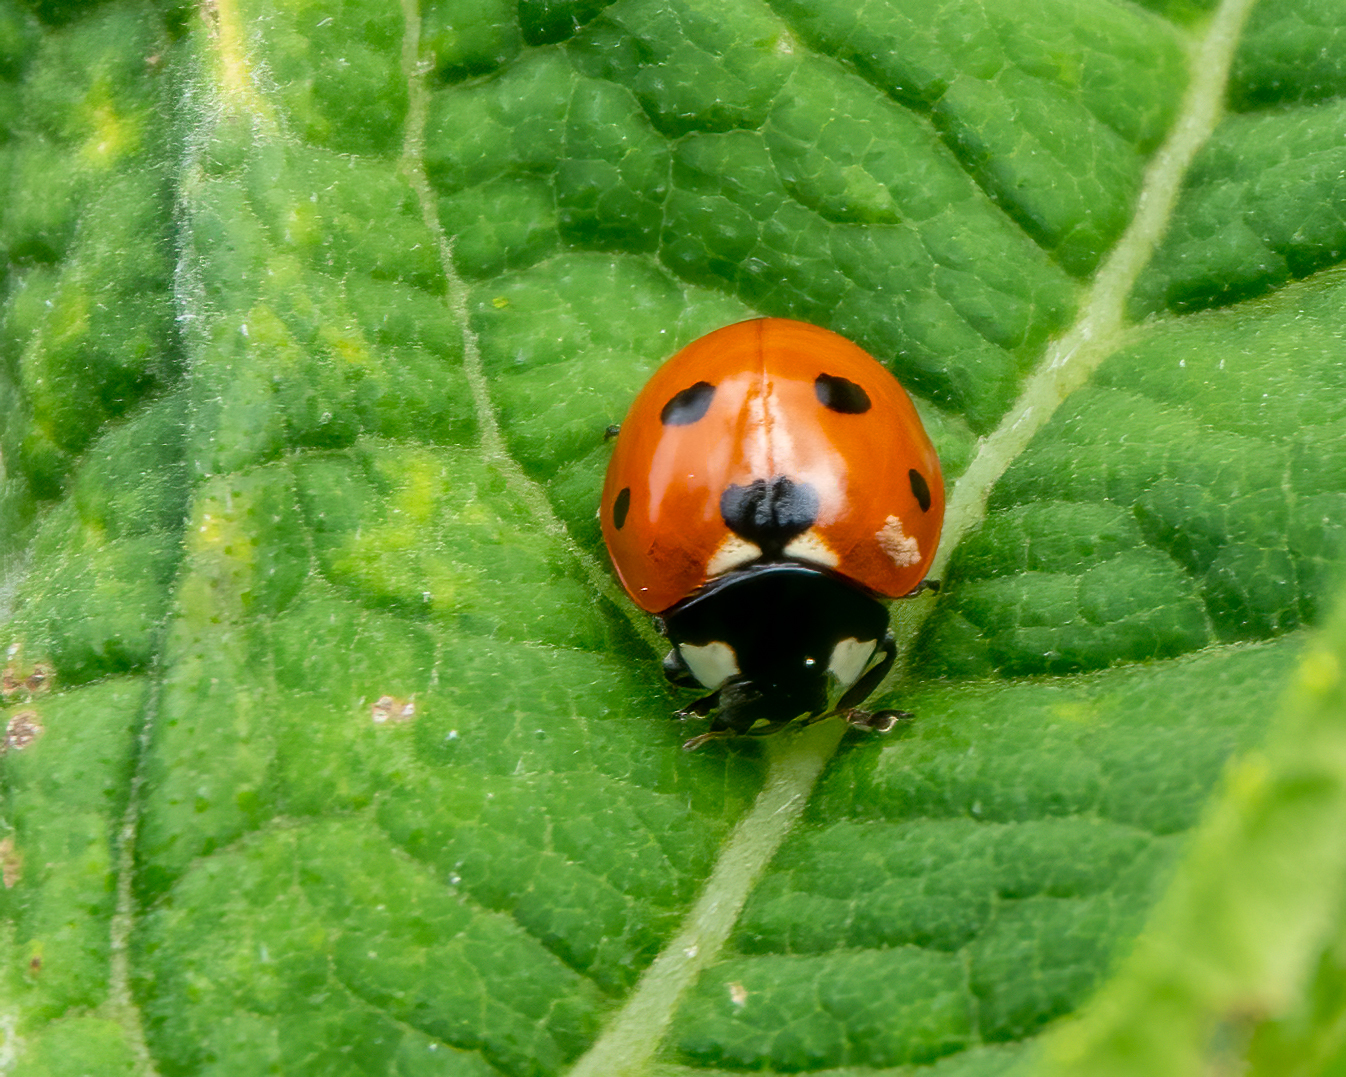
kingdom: Animalia
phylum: Arthropoda
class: Insecta
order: Coleoptera
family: Coccinellidae
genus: Coccinella
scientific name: Coccinella septempunctata
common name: Sevenspotted lady beetle
